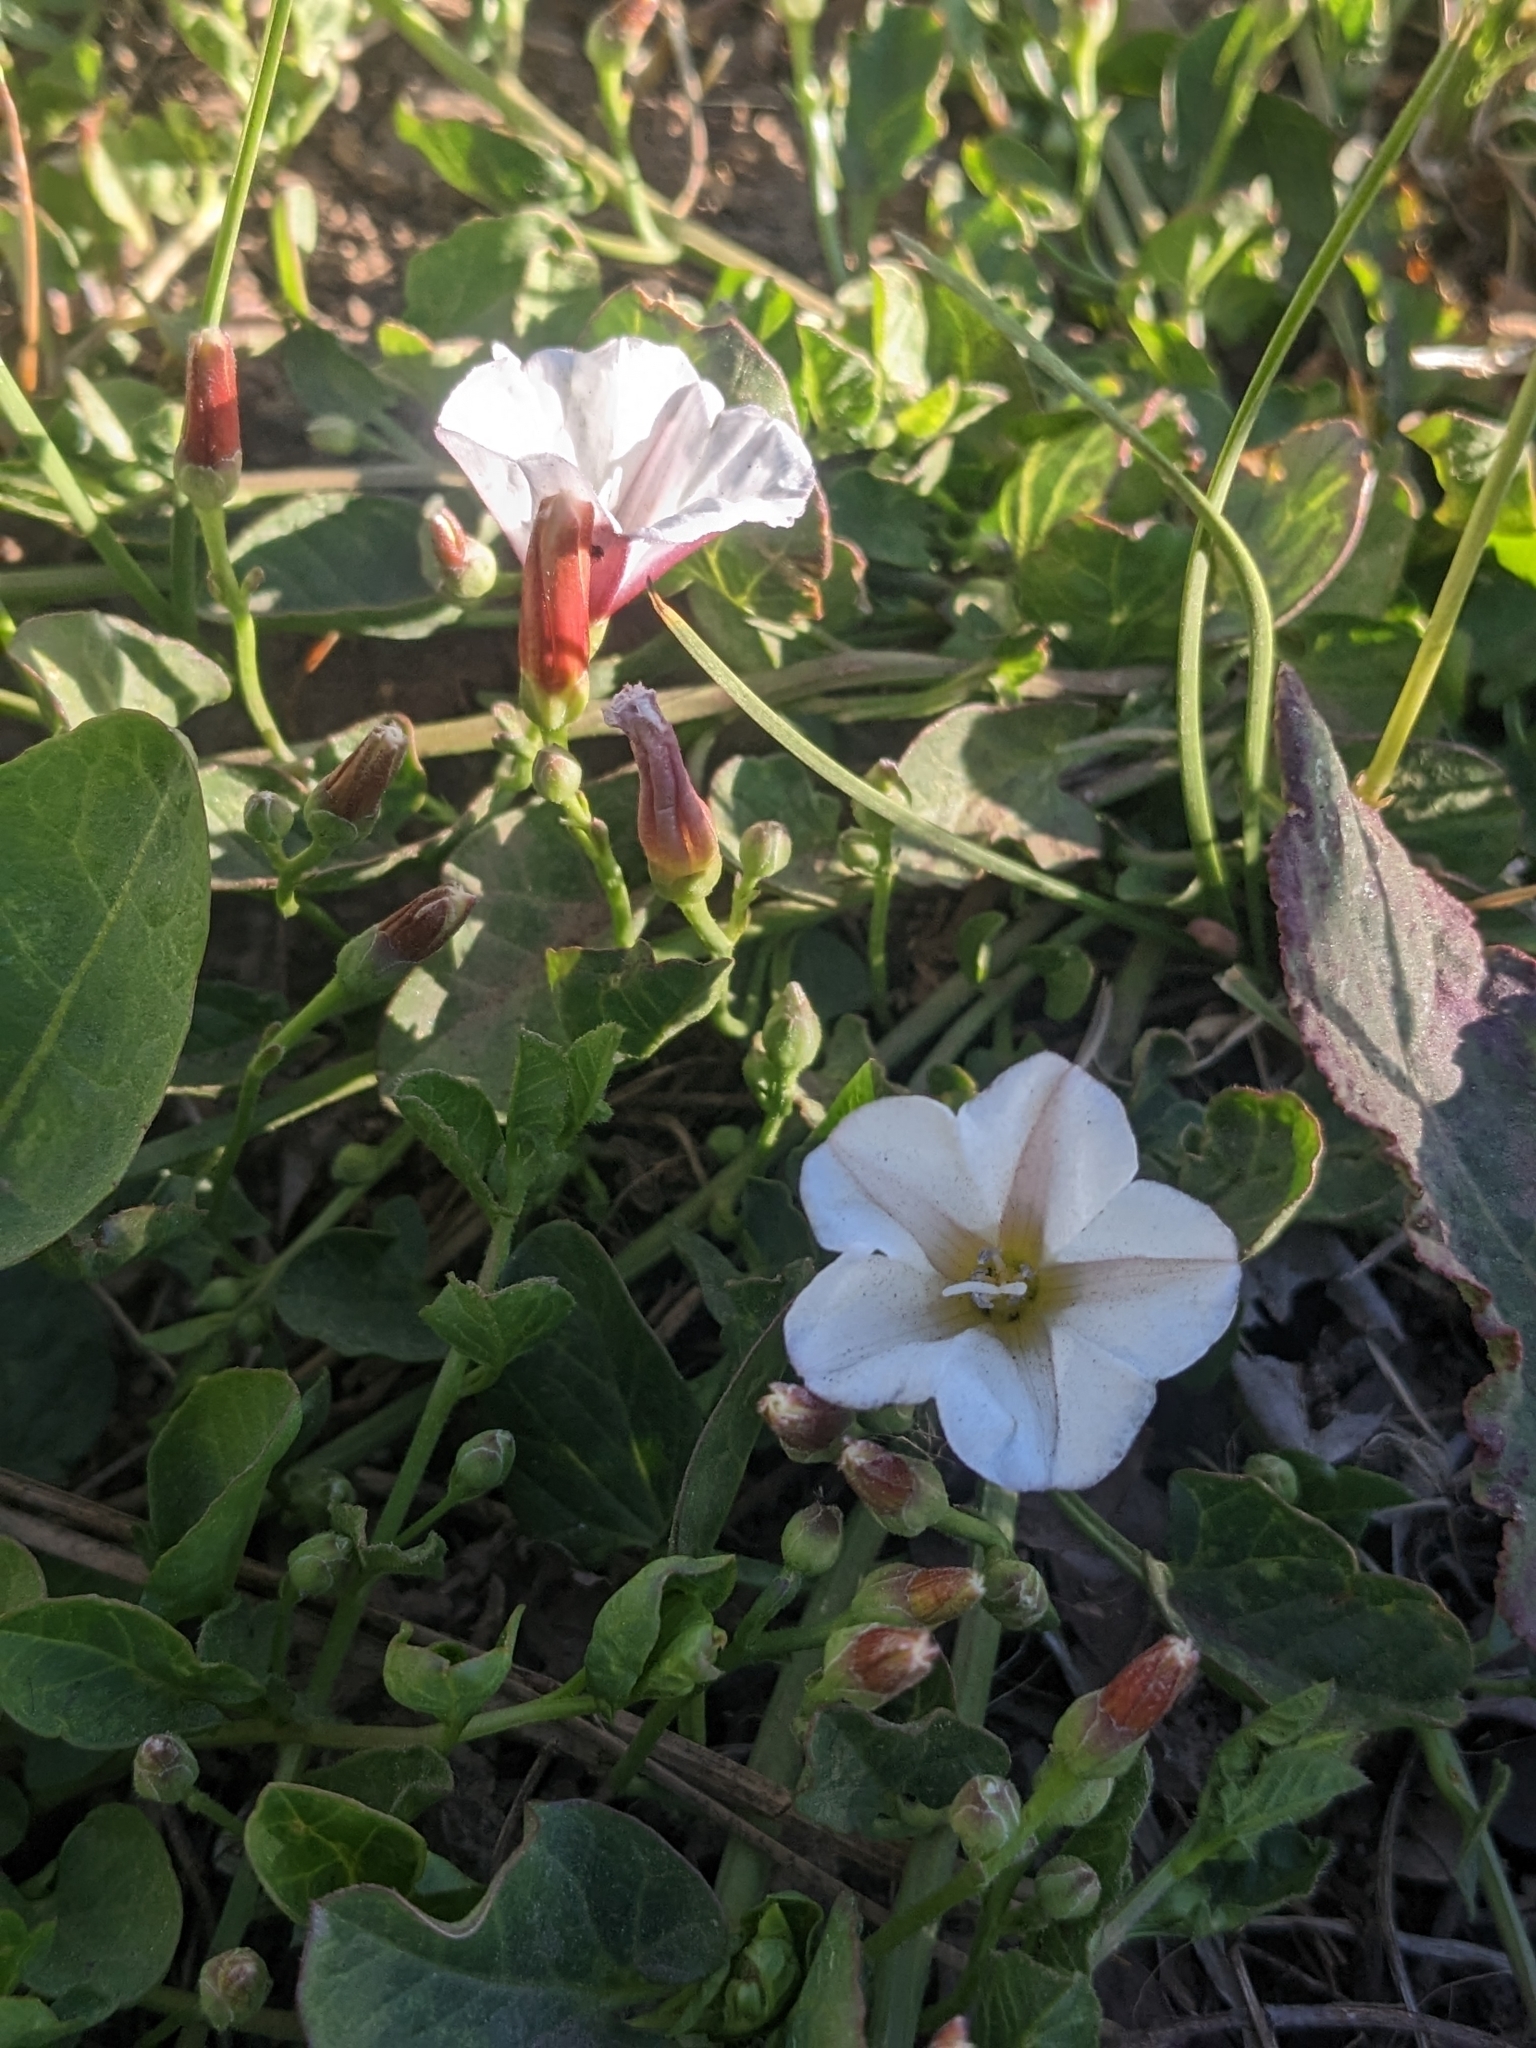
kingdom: Plantae
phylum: Tracheophyta
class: Magnoliopsida
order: Solanales
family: Convolvulaceae
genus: Convolvulus
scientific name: Convolvulus arvensis
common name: Field bindweed
